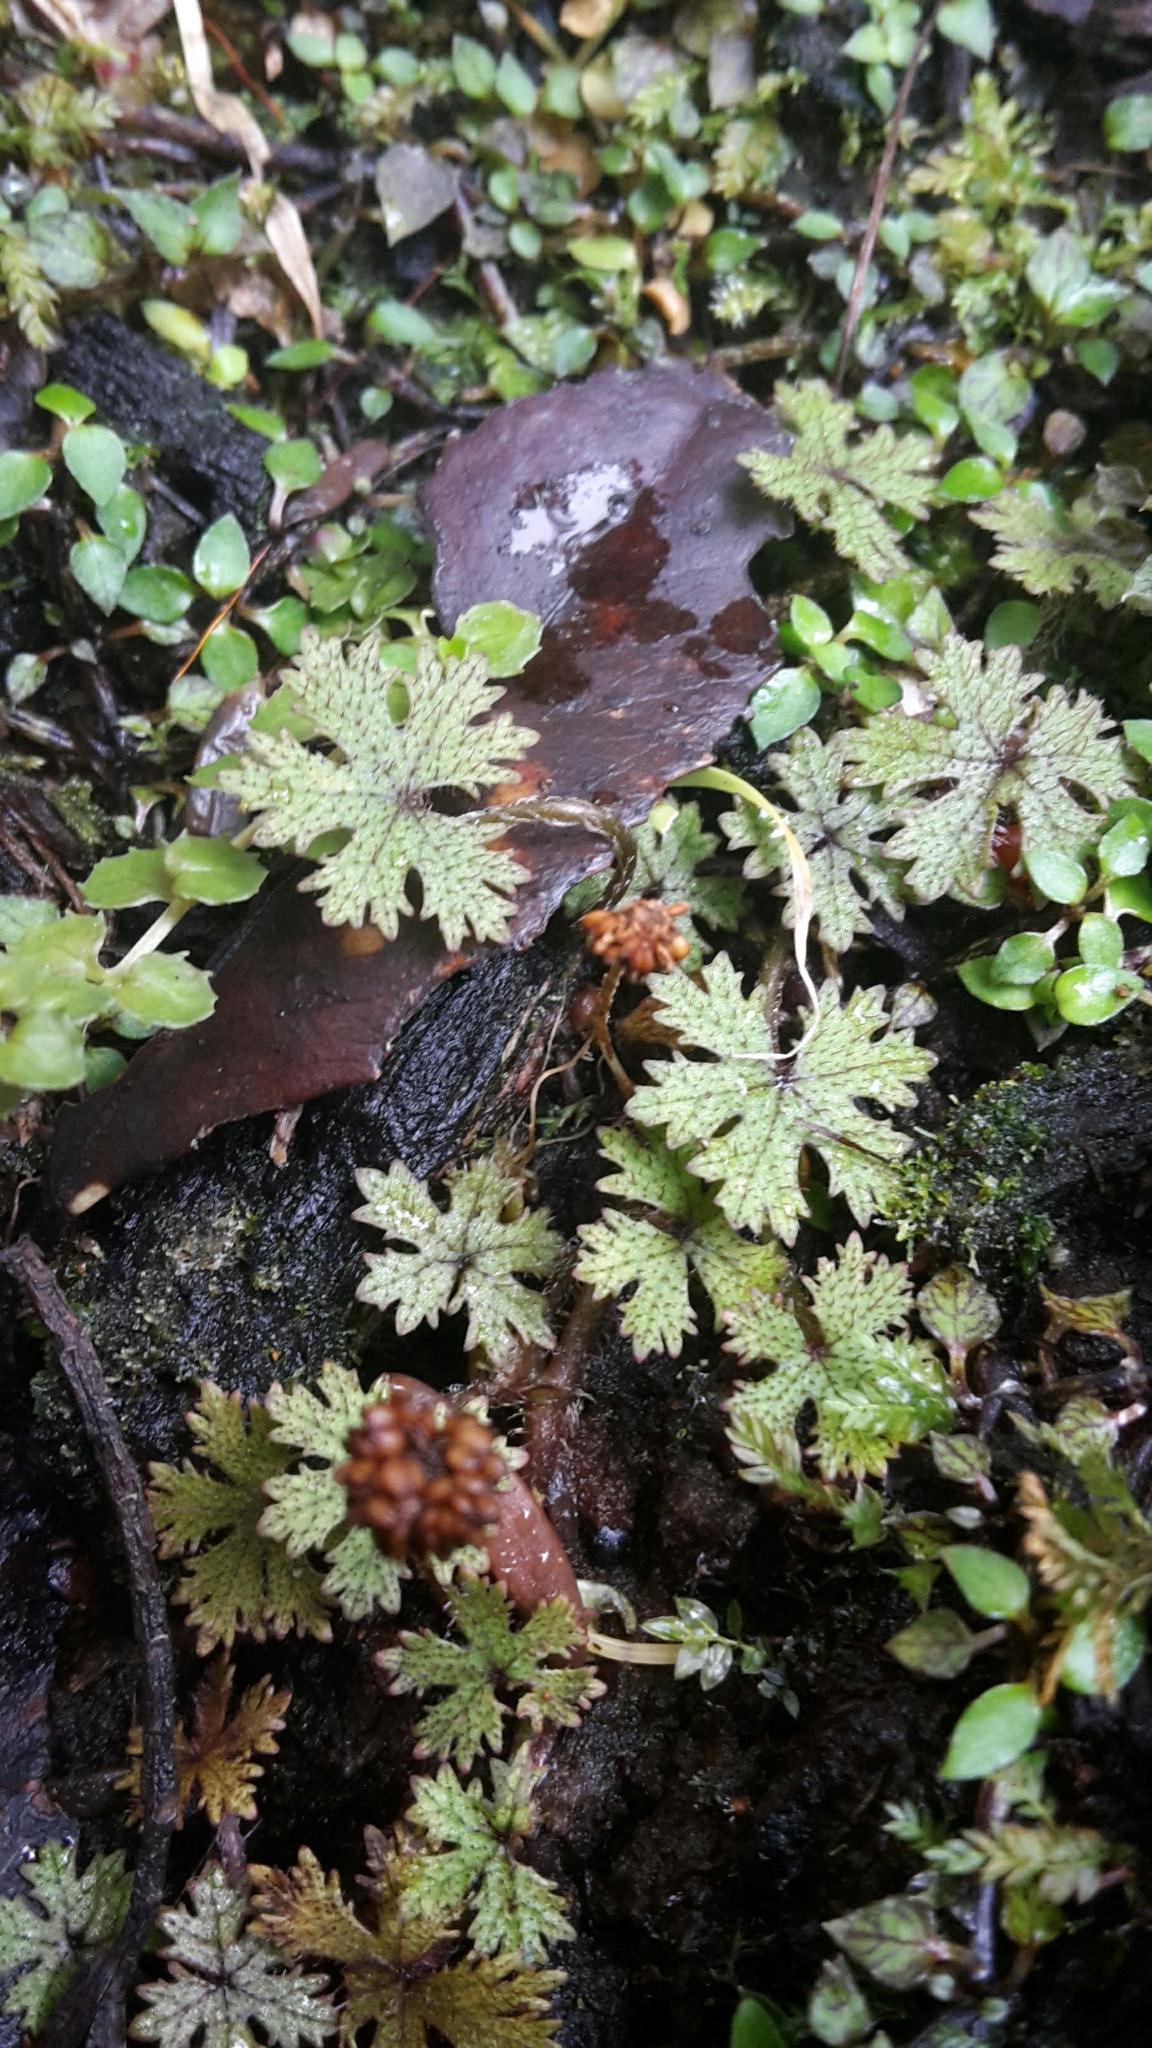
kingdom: Plantae
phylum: Tracheophyta
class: Magnoliopsida
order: Apiales
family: Araliaceae
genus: Hydrocotyle
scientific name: Hydrocotyle dissecta
